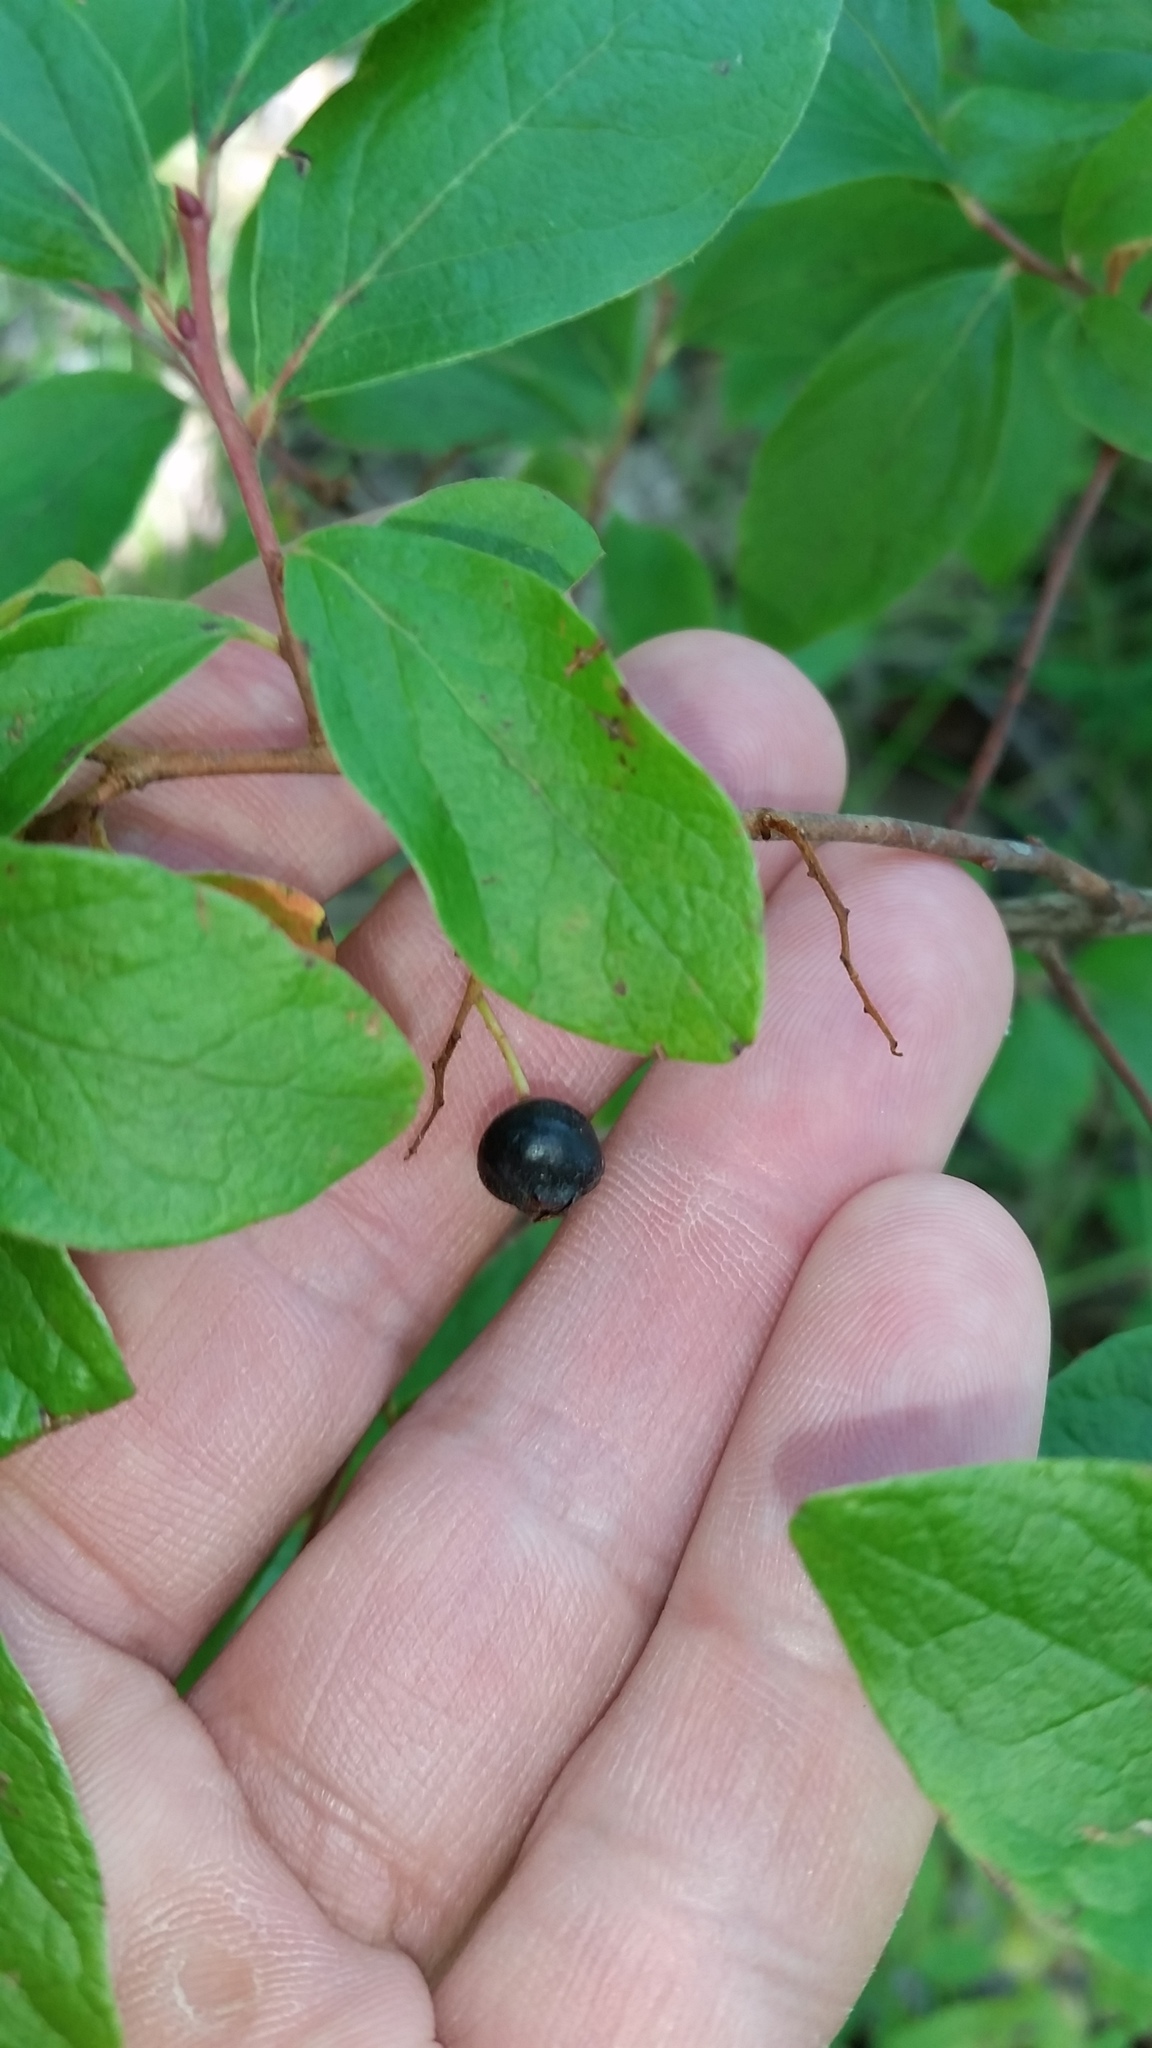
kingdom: Plantae
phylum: Tracheophyta
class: Magnoliopsida
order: Ericales
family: Ericaceae
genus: Gaylussacia
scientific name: Gaylussacia baccata
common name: Black huckleberry
